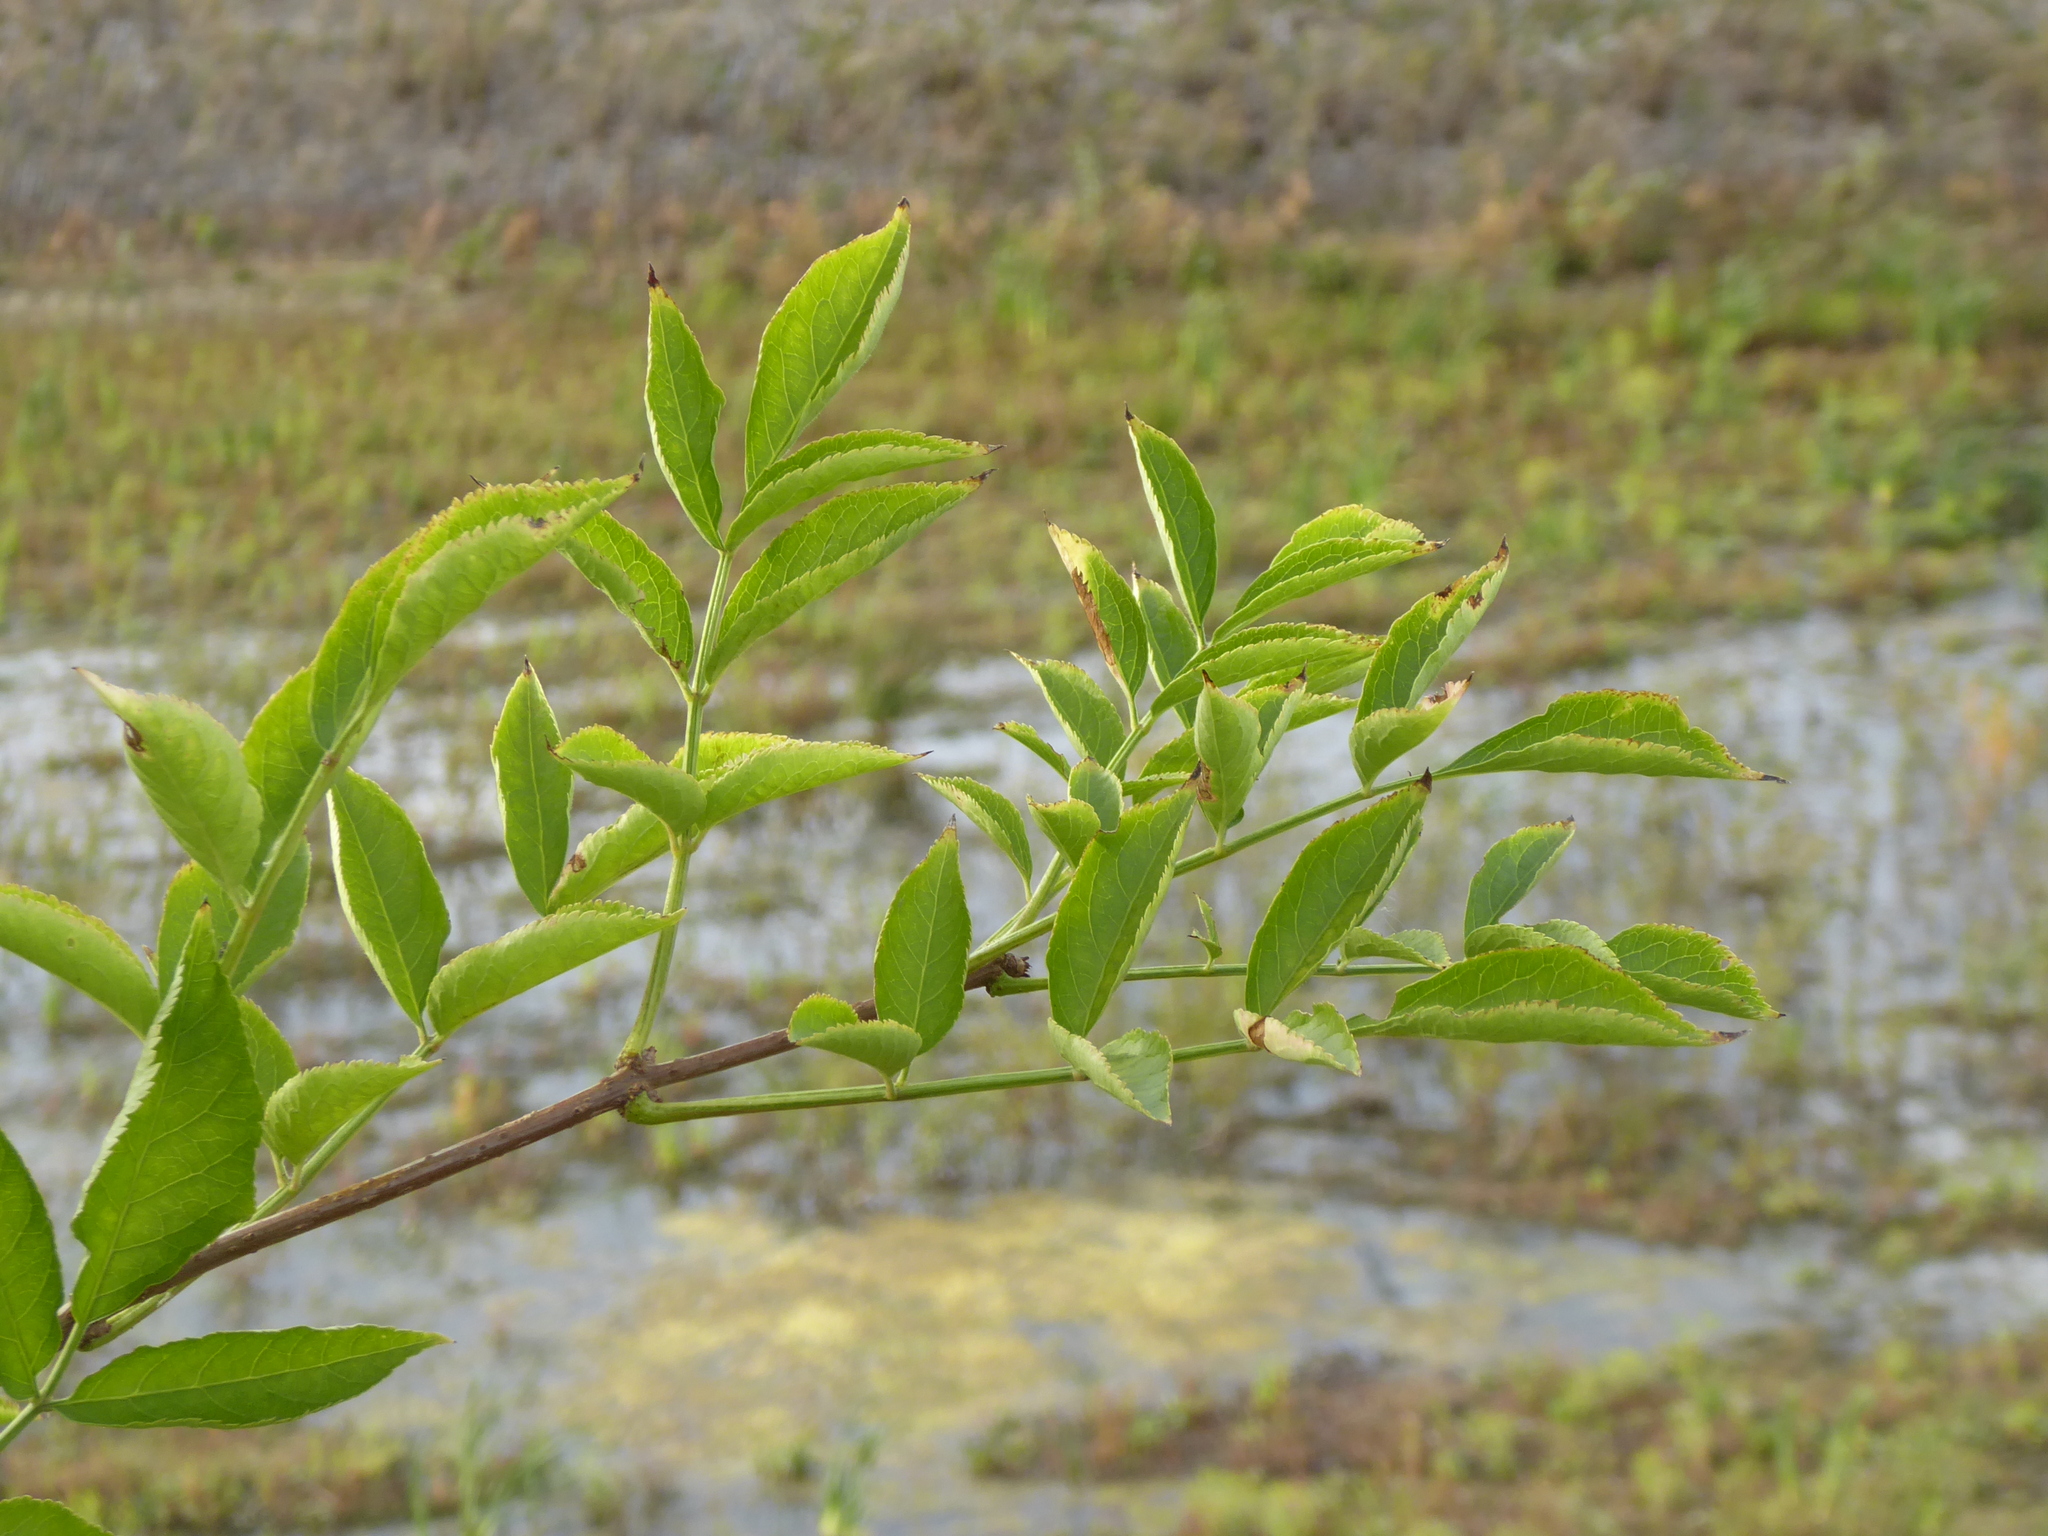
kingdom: Plantae
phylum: Tracheophyta
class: Magnoliopsida
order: Dipsacales
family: Viburnaceae
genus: Sambucus
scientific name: Sambucus nigra
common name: Elder
